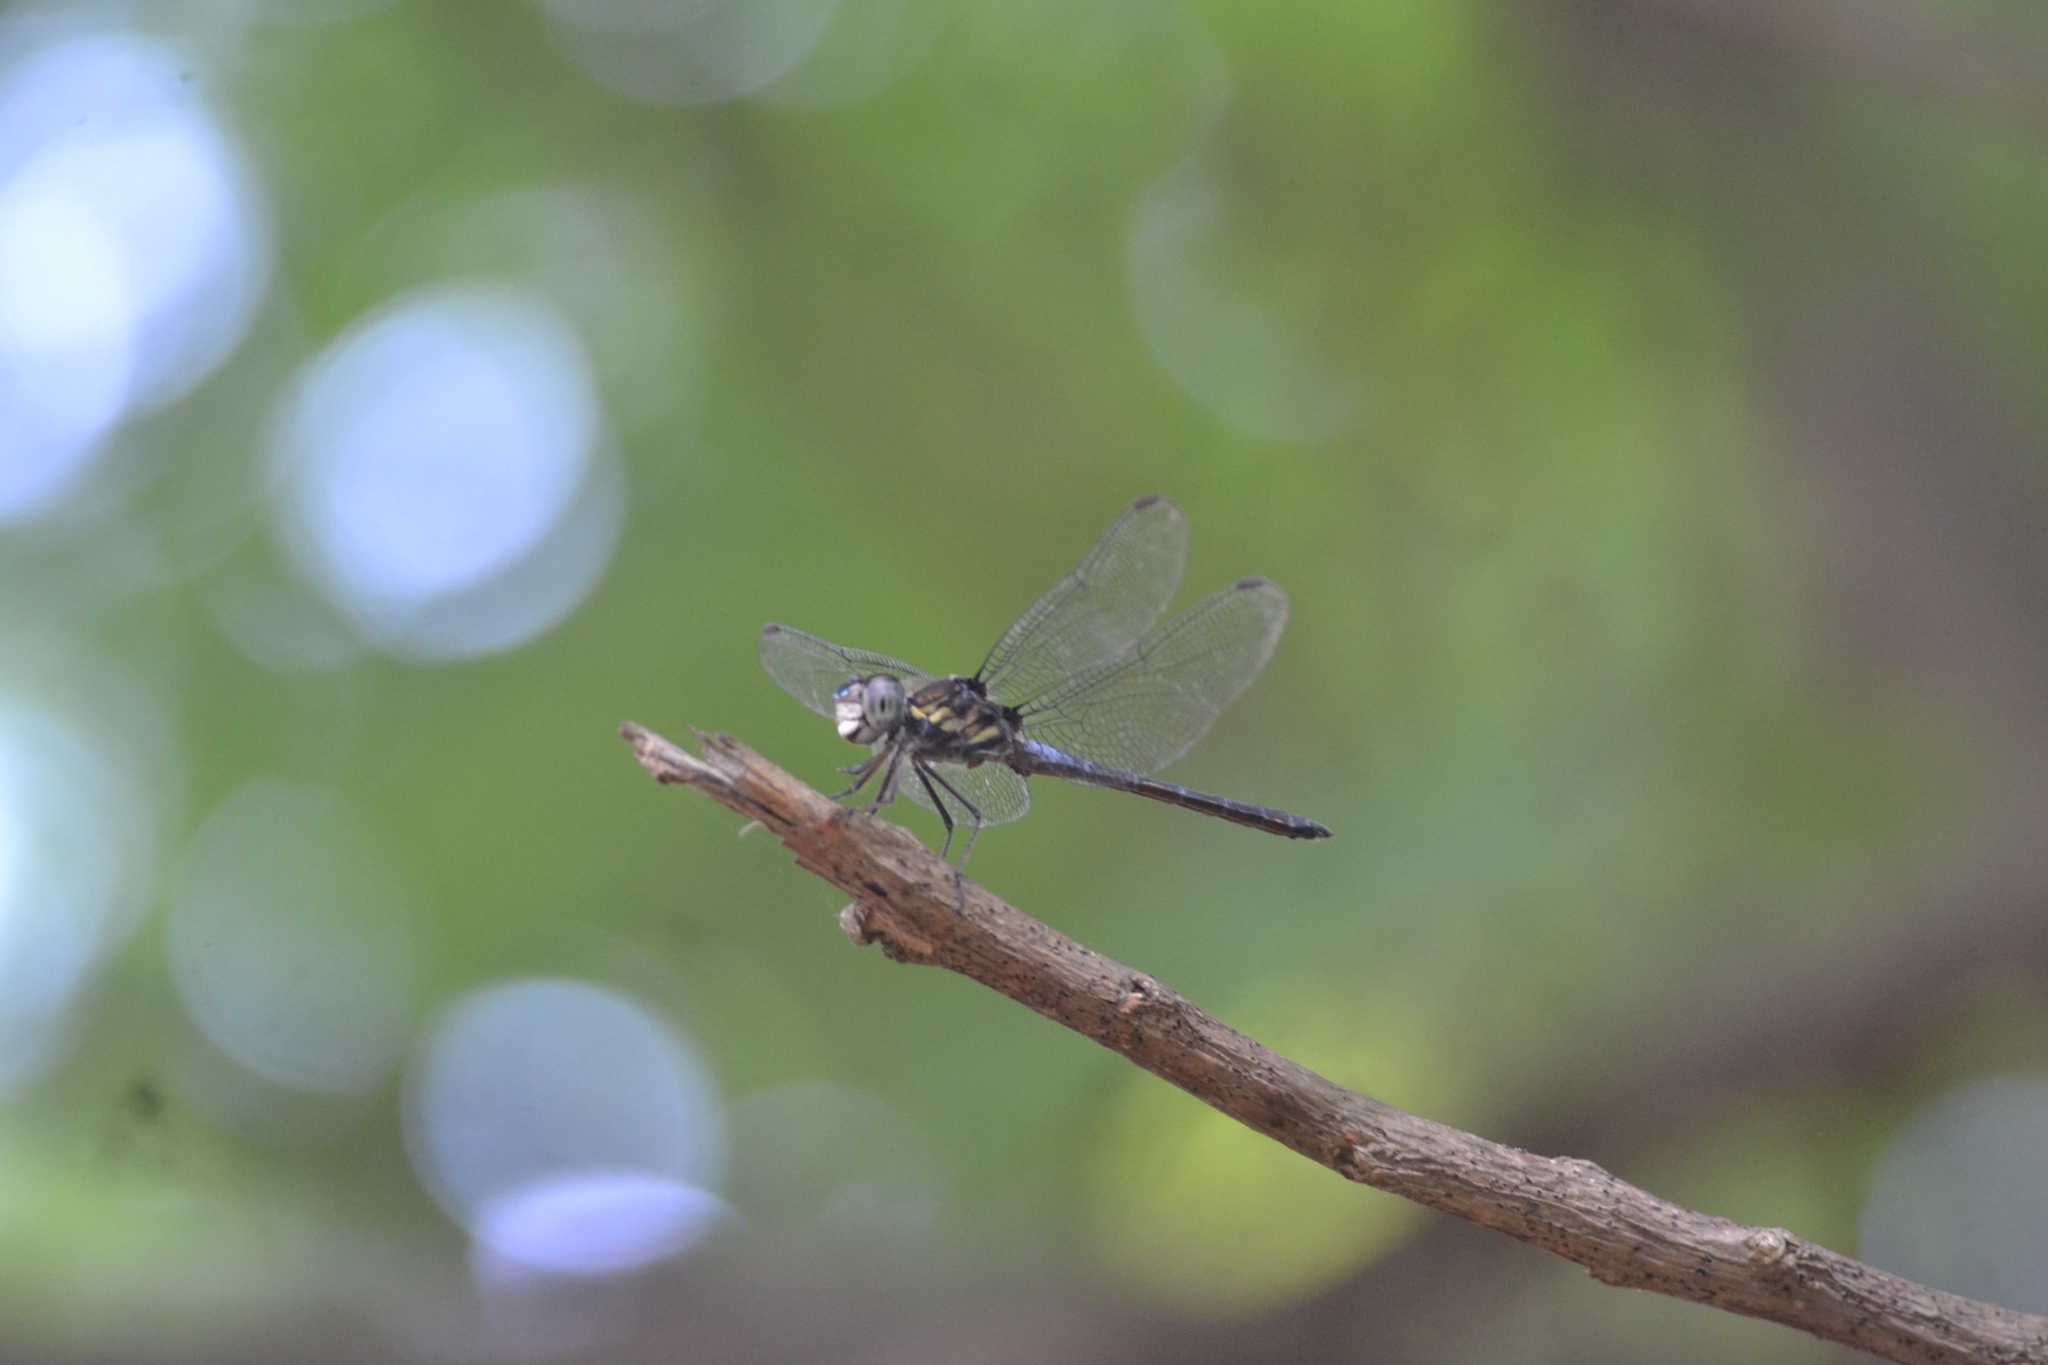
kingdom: Animalia
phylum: Arthropoda
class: Insecta
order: Odonata
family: Libellulidae
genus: Potamarcha
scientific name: Potamarcha congener
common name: Blue chaser
